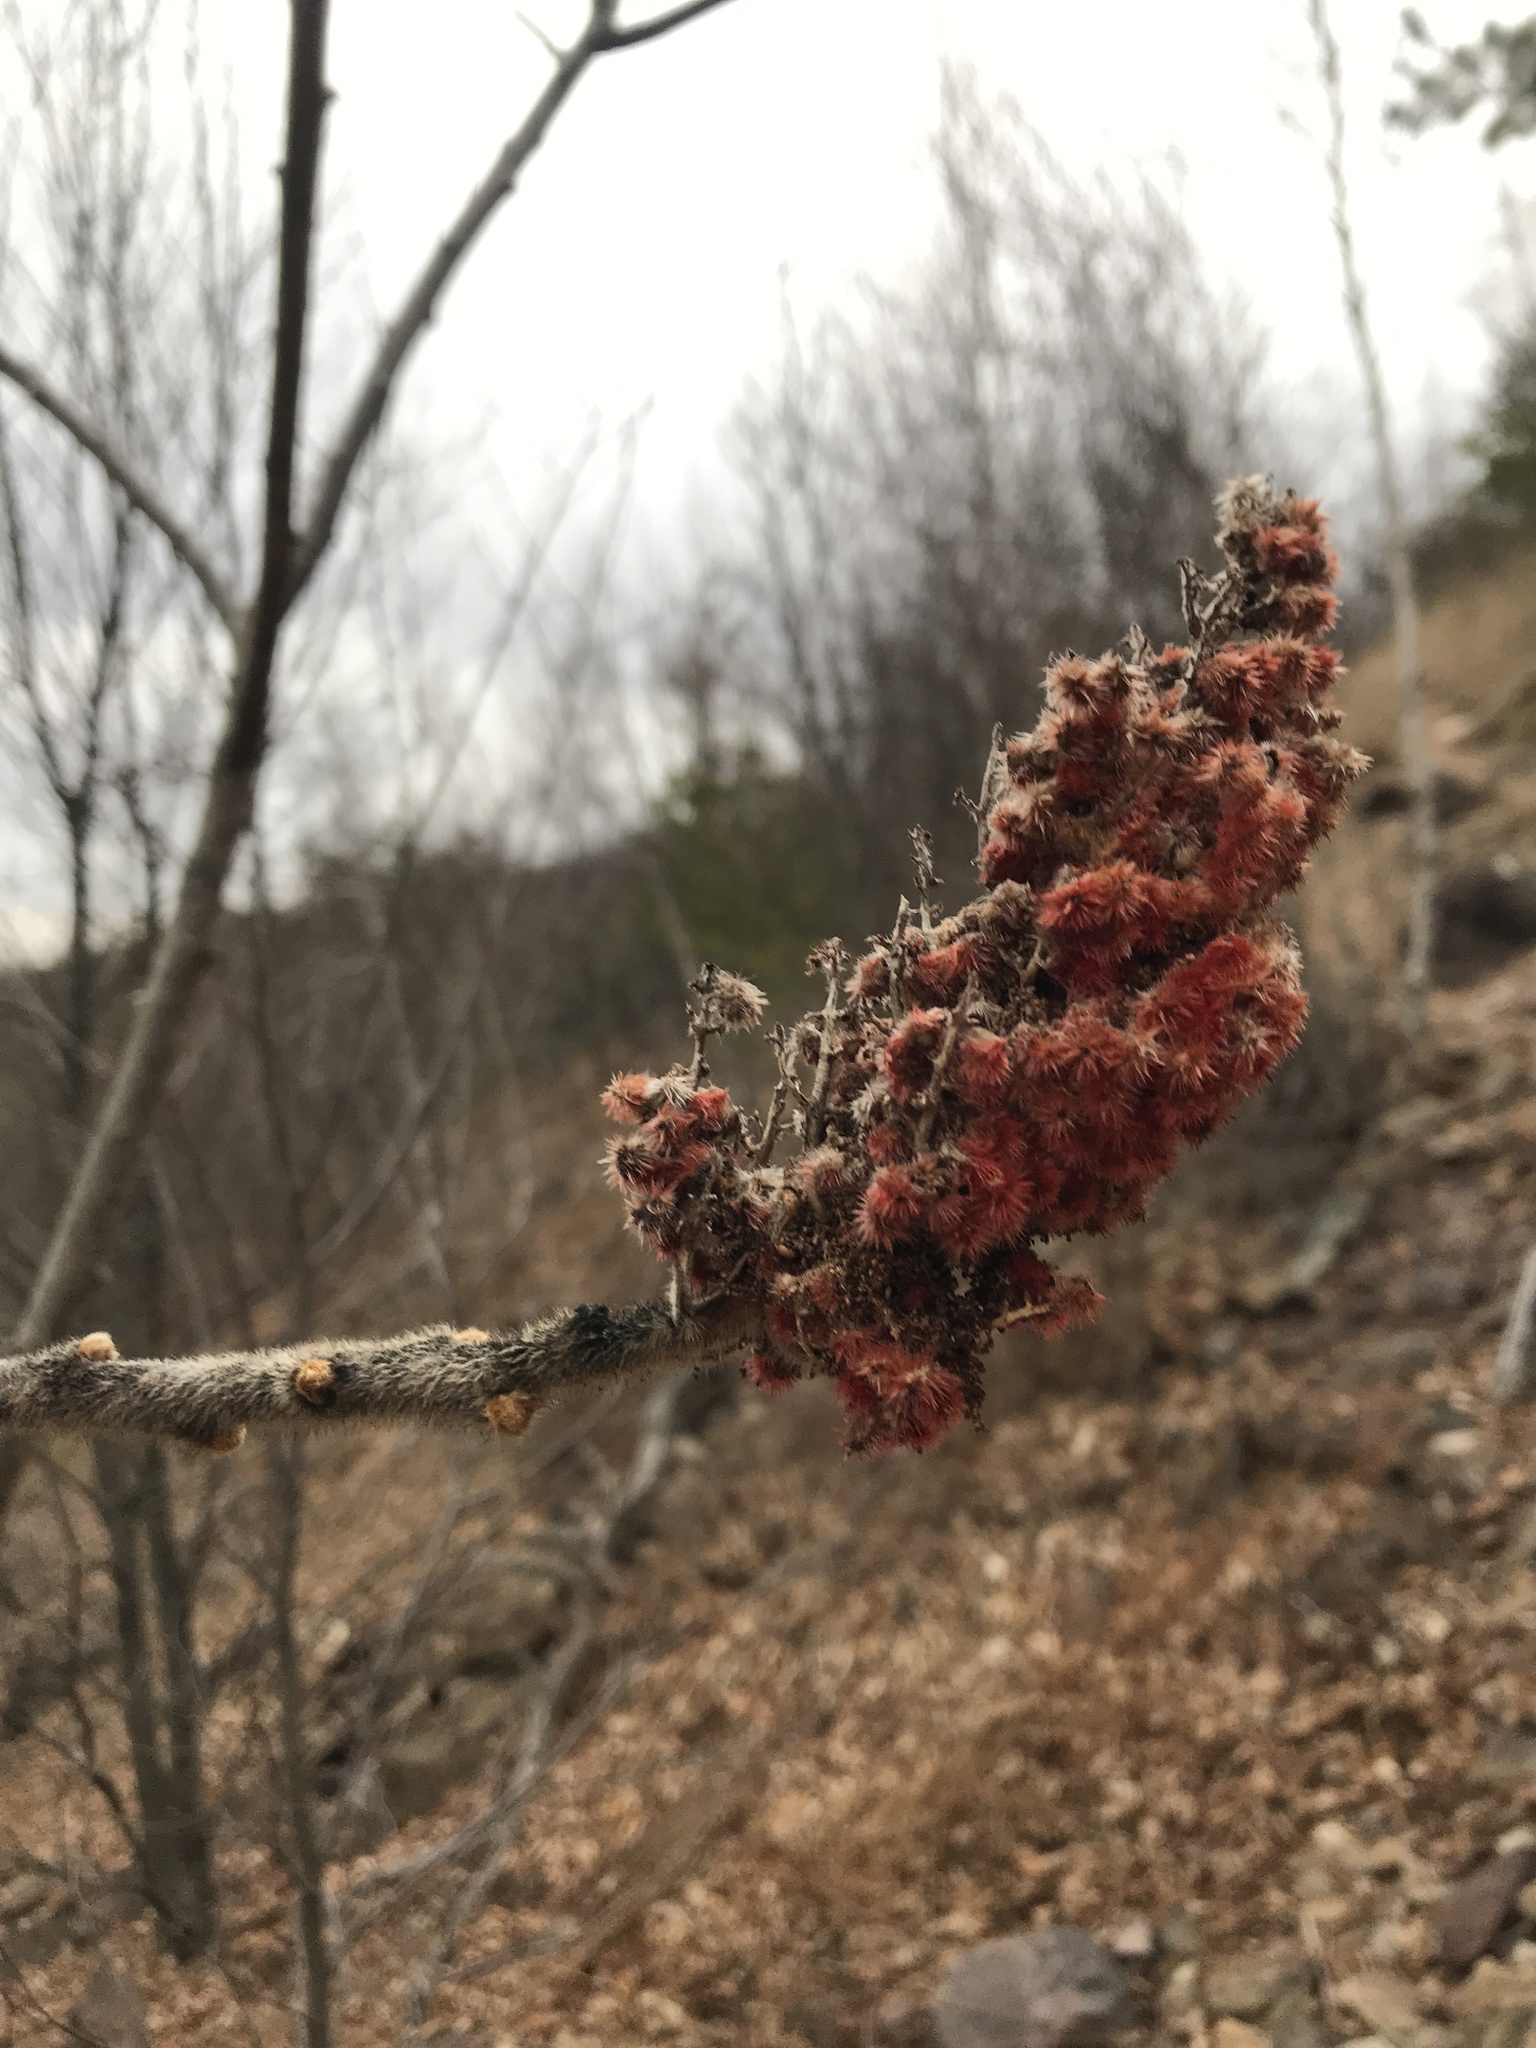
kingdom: Plantae
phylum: Tracheophyta
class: Magnoliopsida
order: Sapindales
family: Anacardiaceae
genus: Rhus
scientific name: Rhus typhina
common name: Staghorn sumac
